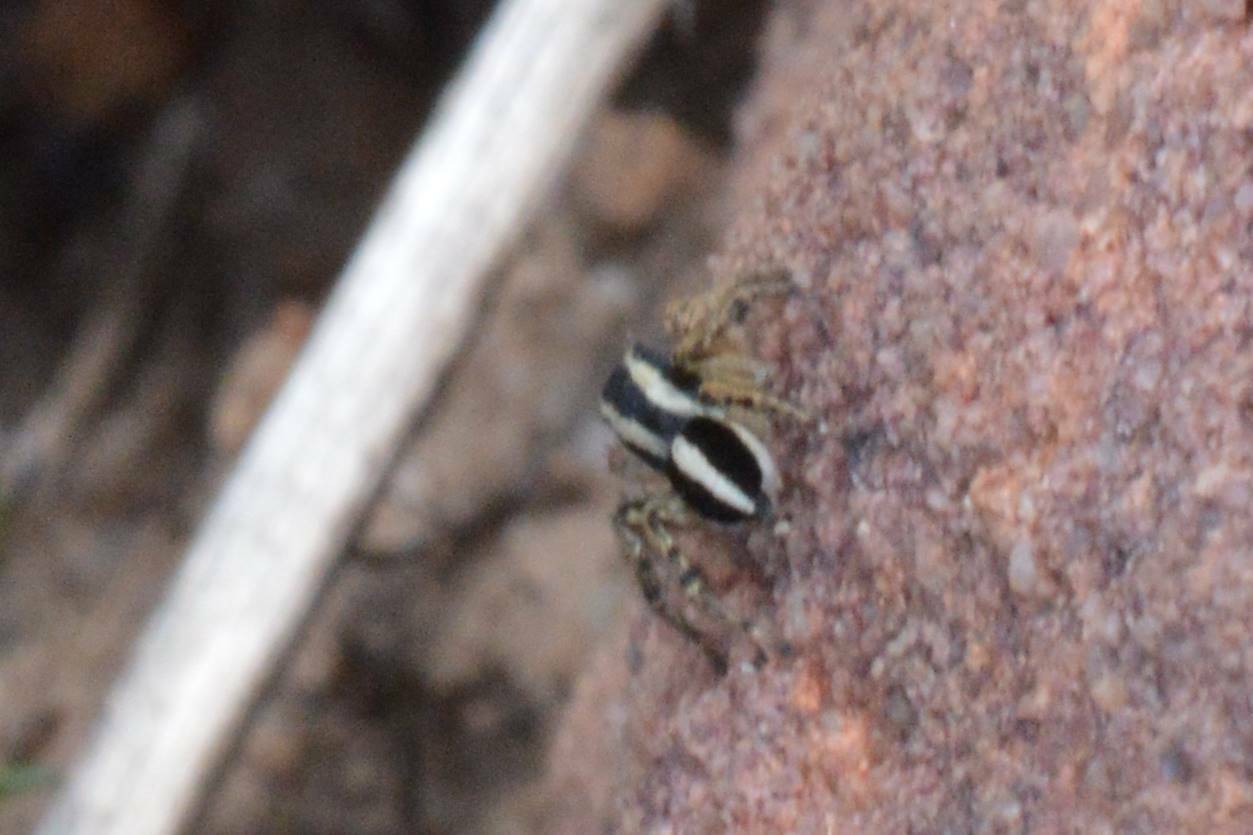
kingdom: Animalia
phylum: Arthropoda
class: Arachnida
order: Araneae
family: Salticidae
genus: Aelurillus
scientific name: Aelurillus luctuosus
